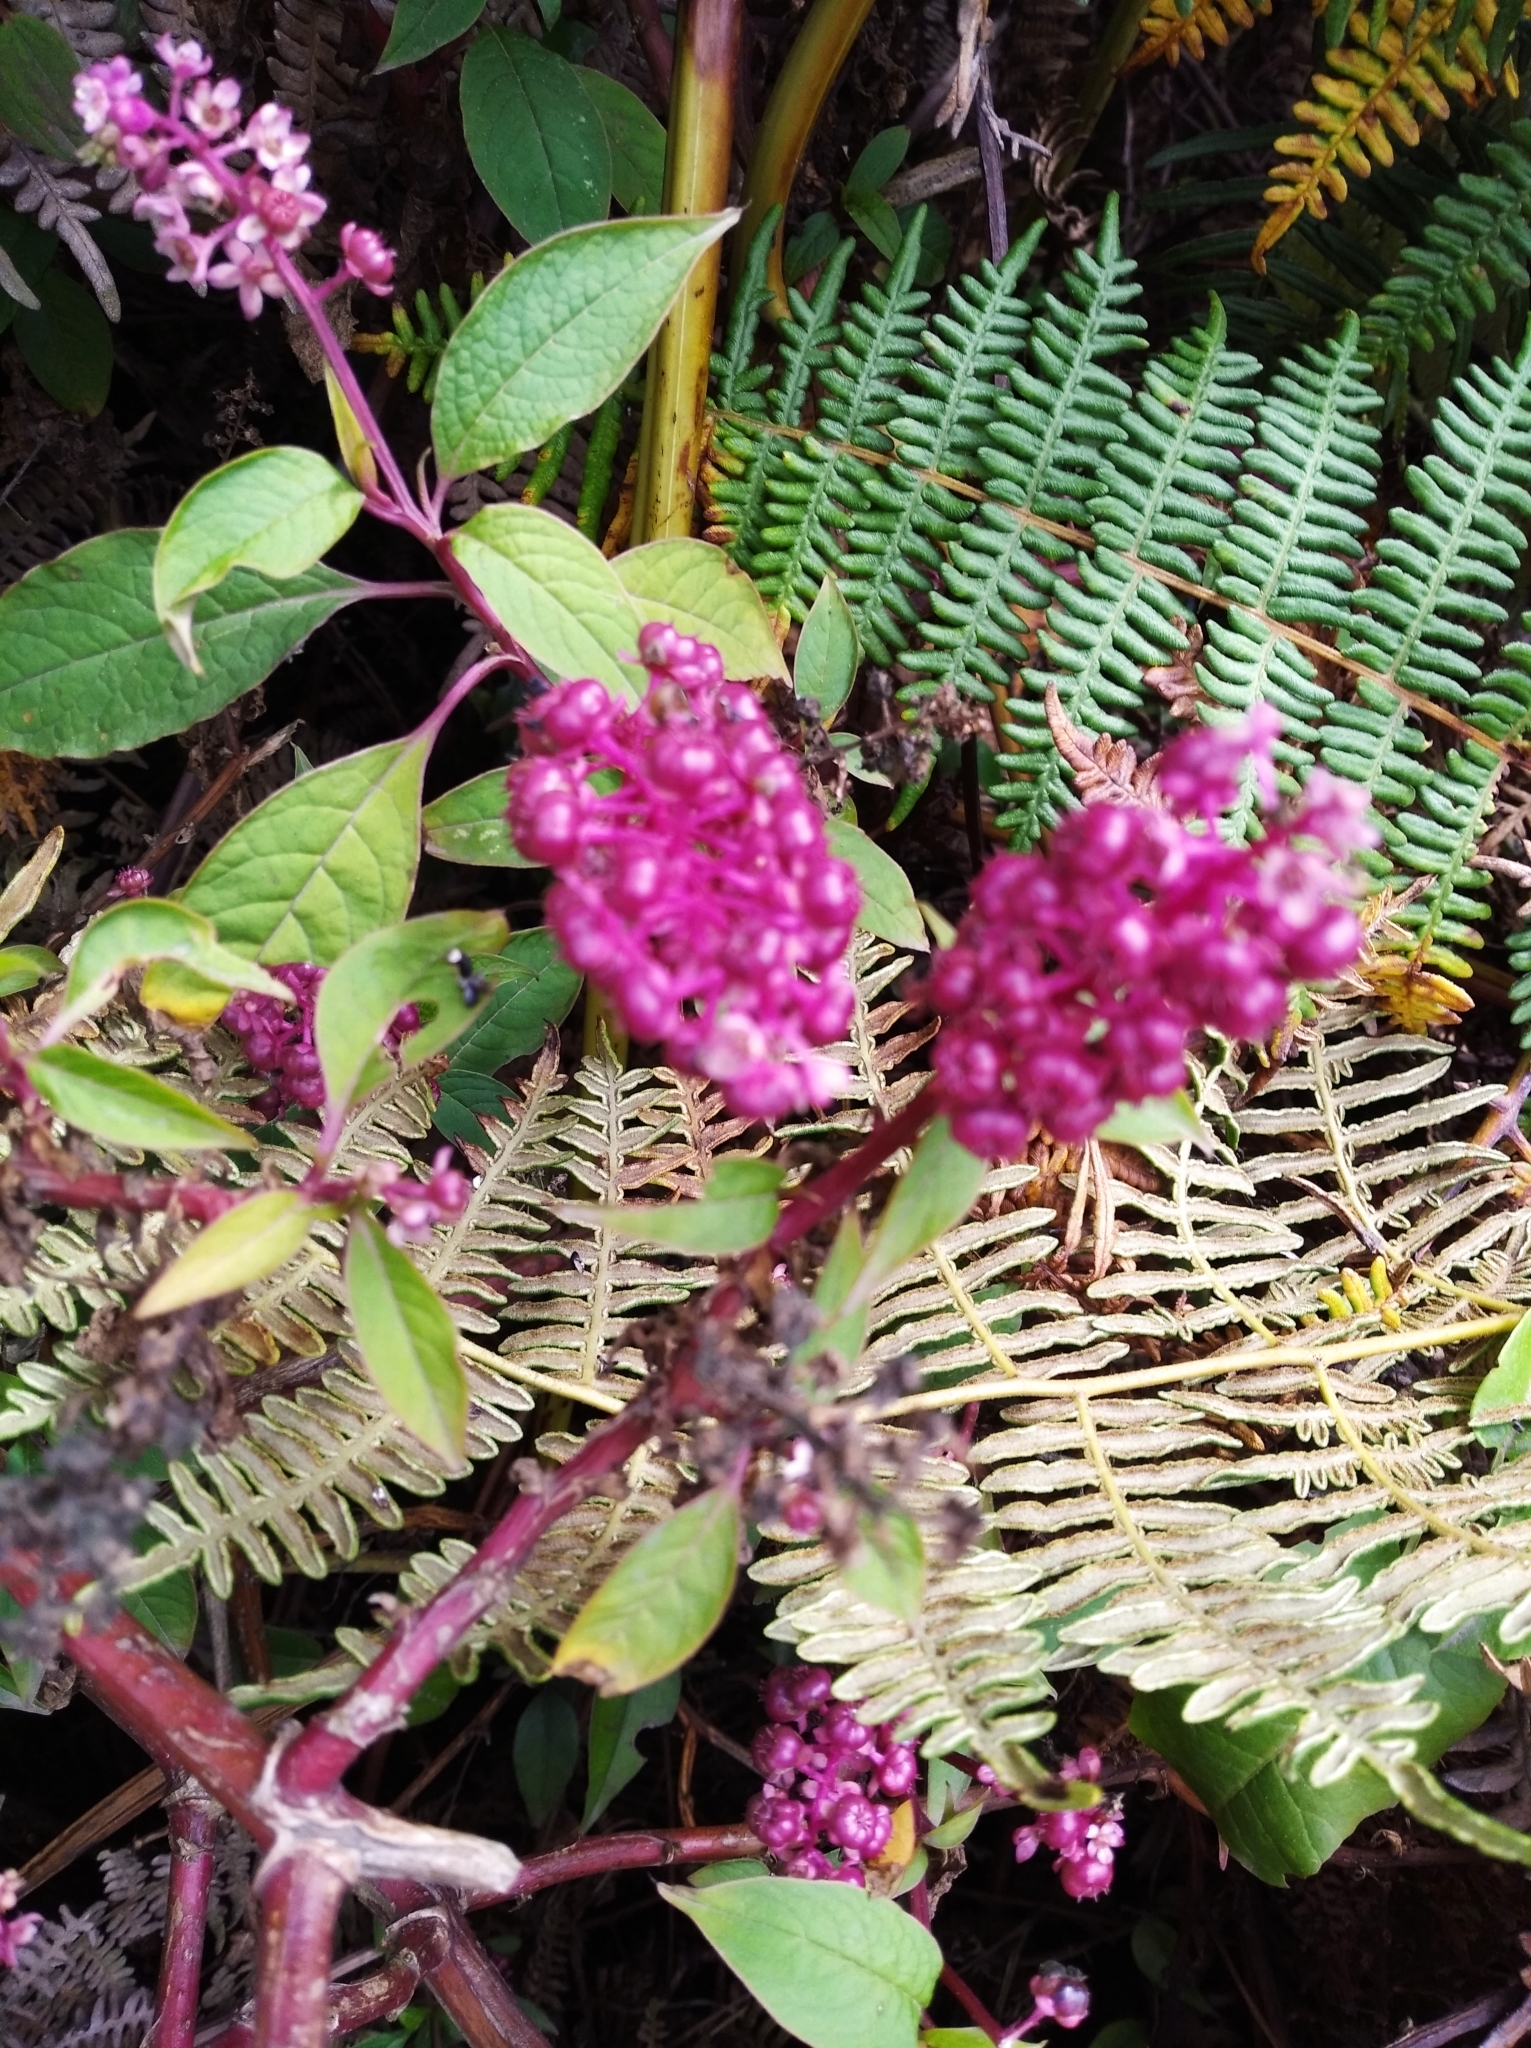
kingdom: Plantae
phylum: Tracheophyta
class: Magnoliopsida
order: Caryophyllales
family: Phytolaccaceae
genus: Phytolacca
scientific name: Phytolacca rugosa
